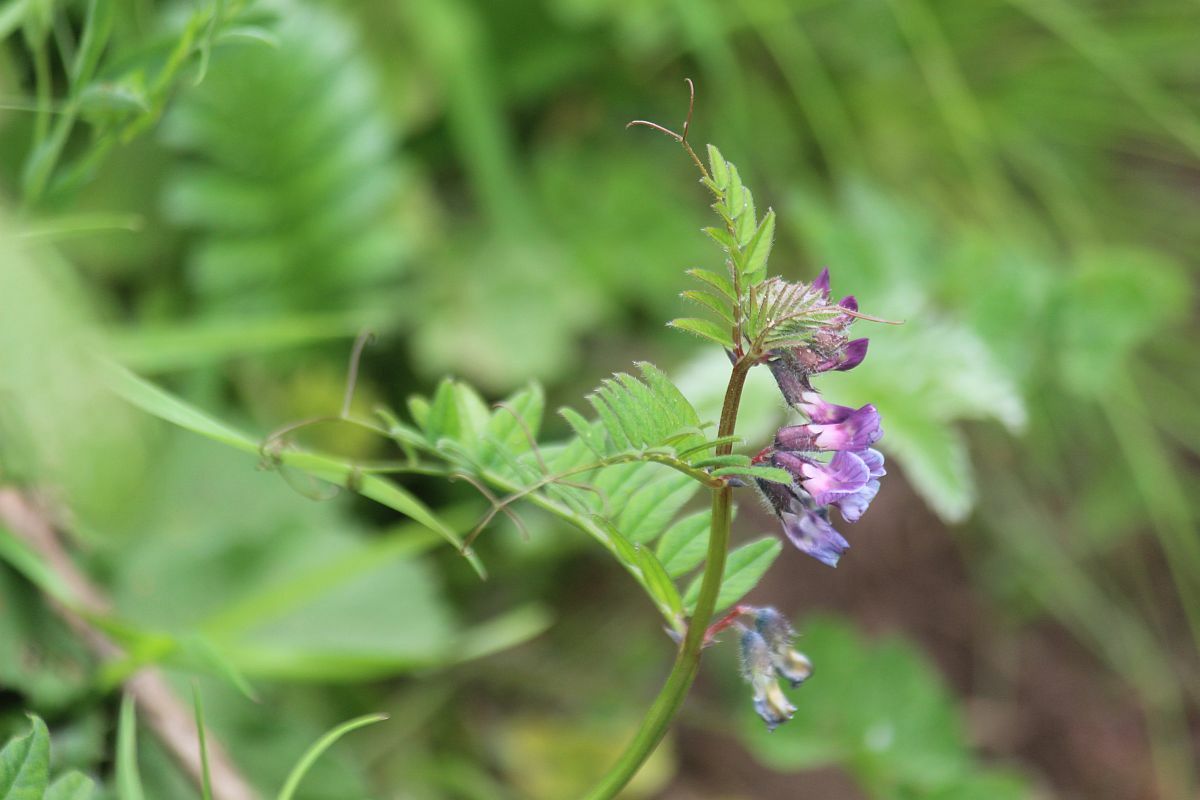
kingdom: Plantae
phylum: Tracheophyta
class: Magnoliopsida
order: Fabales
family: Fabaceae
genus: Vicia
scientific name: Vicia sepium
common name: Bush vetch
